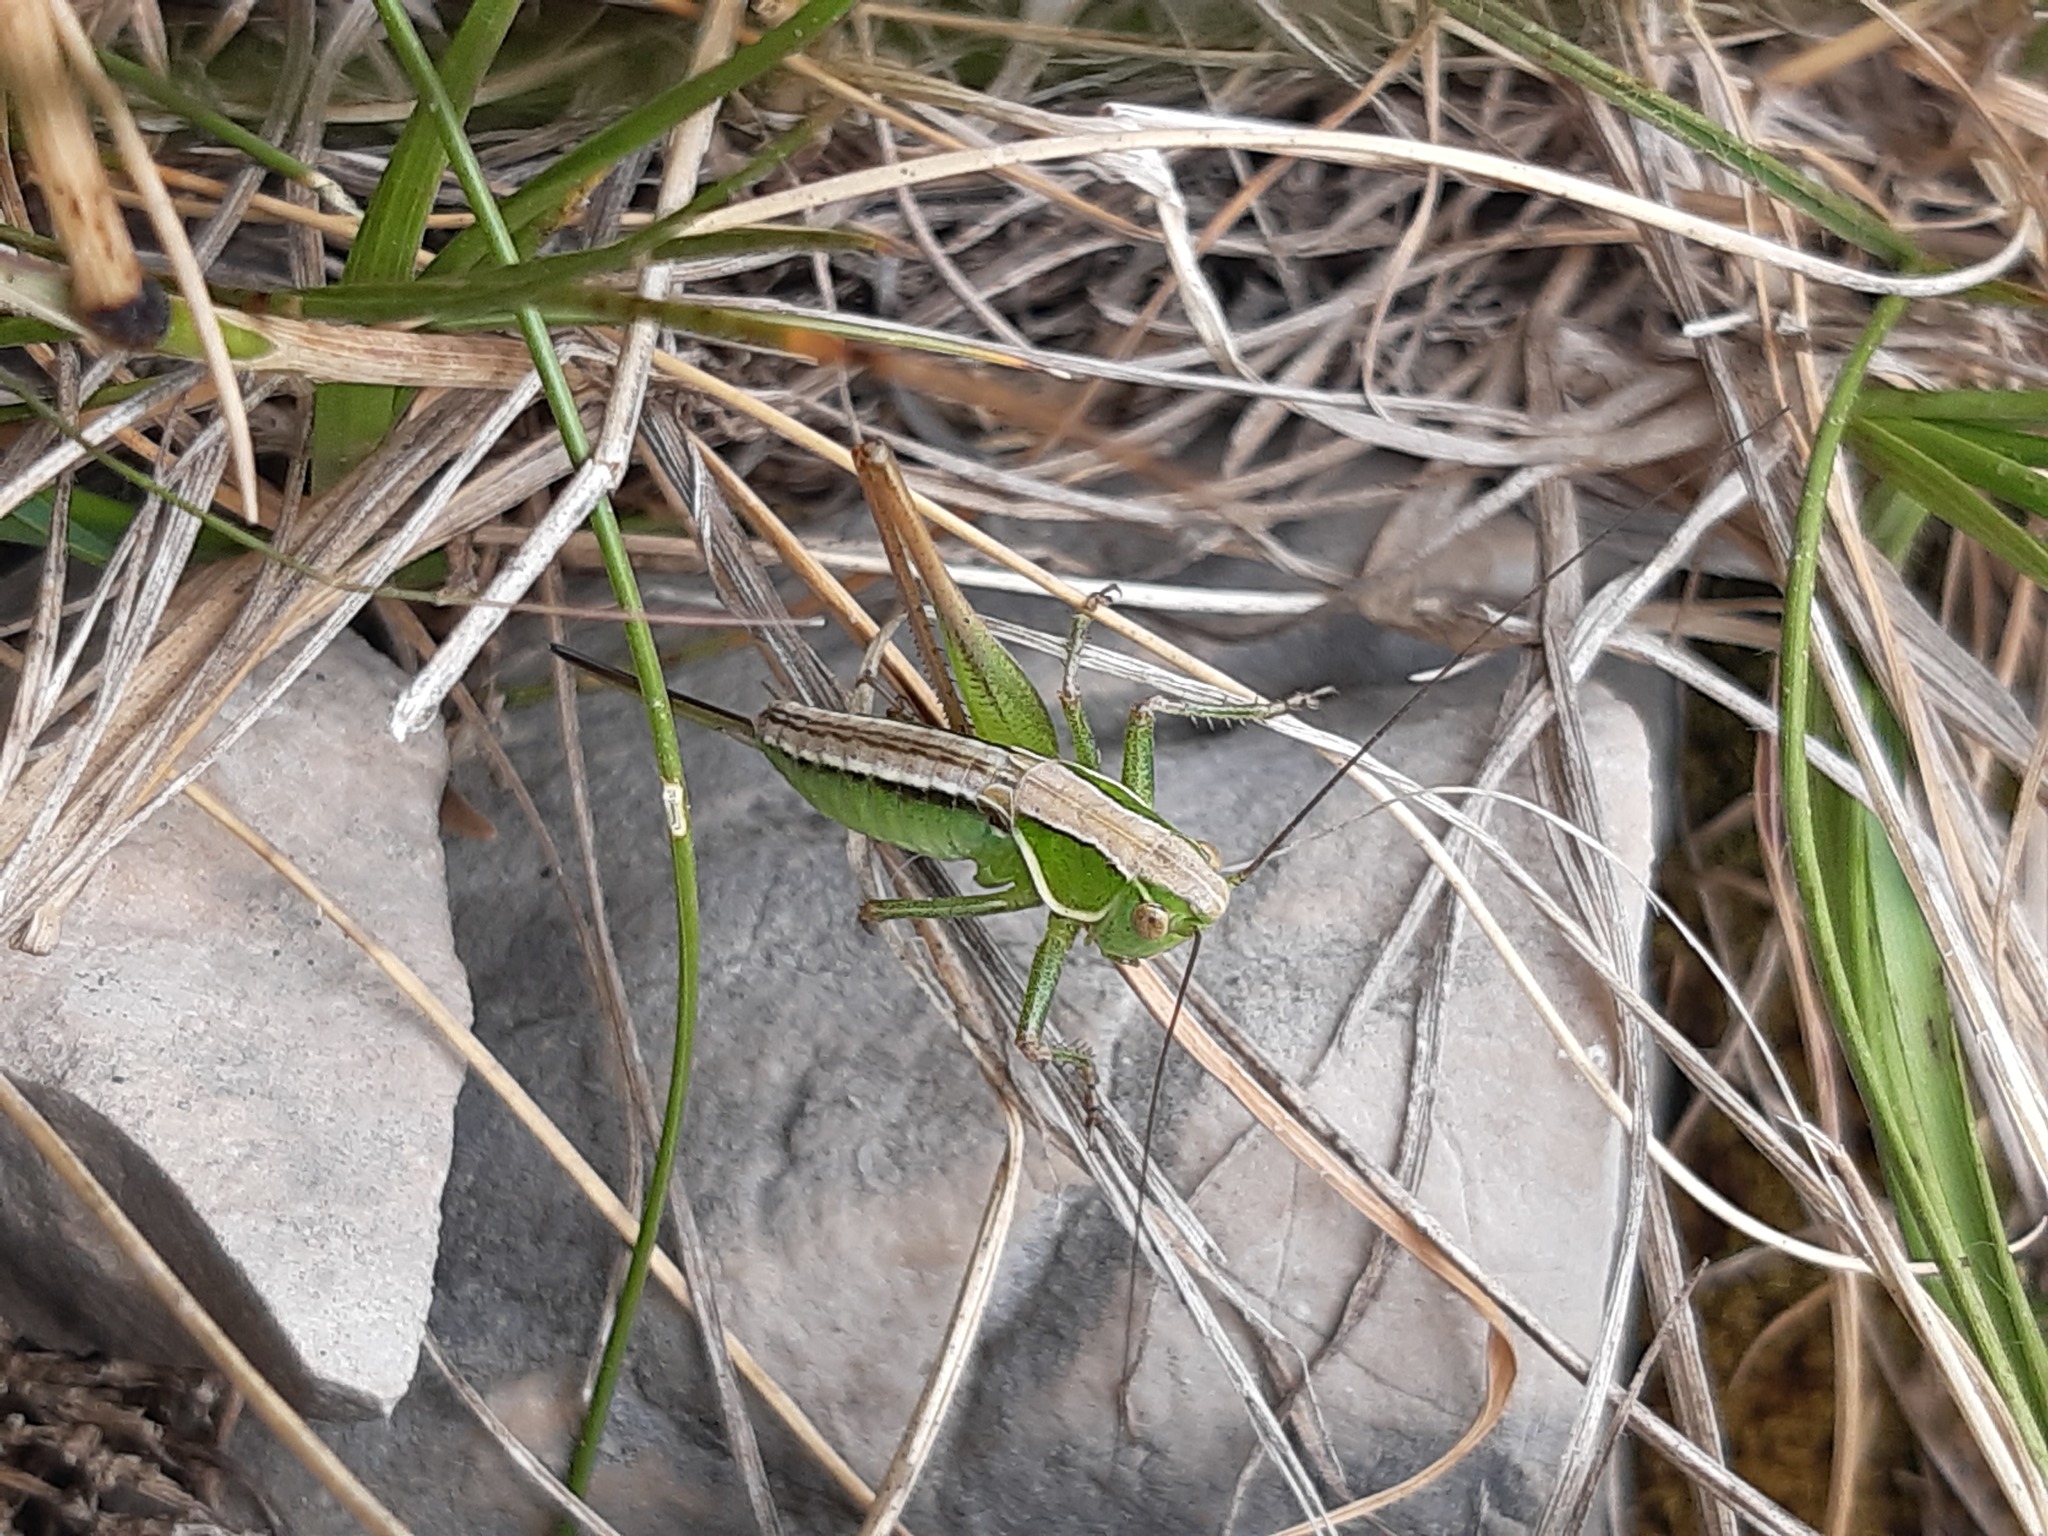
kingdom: Animalia
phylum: Arthropoda
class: Insecta
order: Orthoptera
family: Tettigoniidae
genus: Modestana
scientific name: Modestana modesta
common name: Common modest bush-cricket
